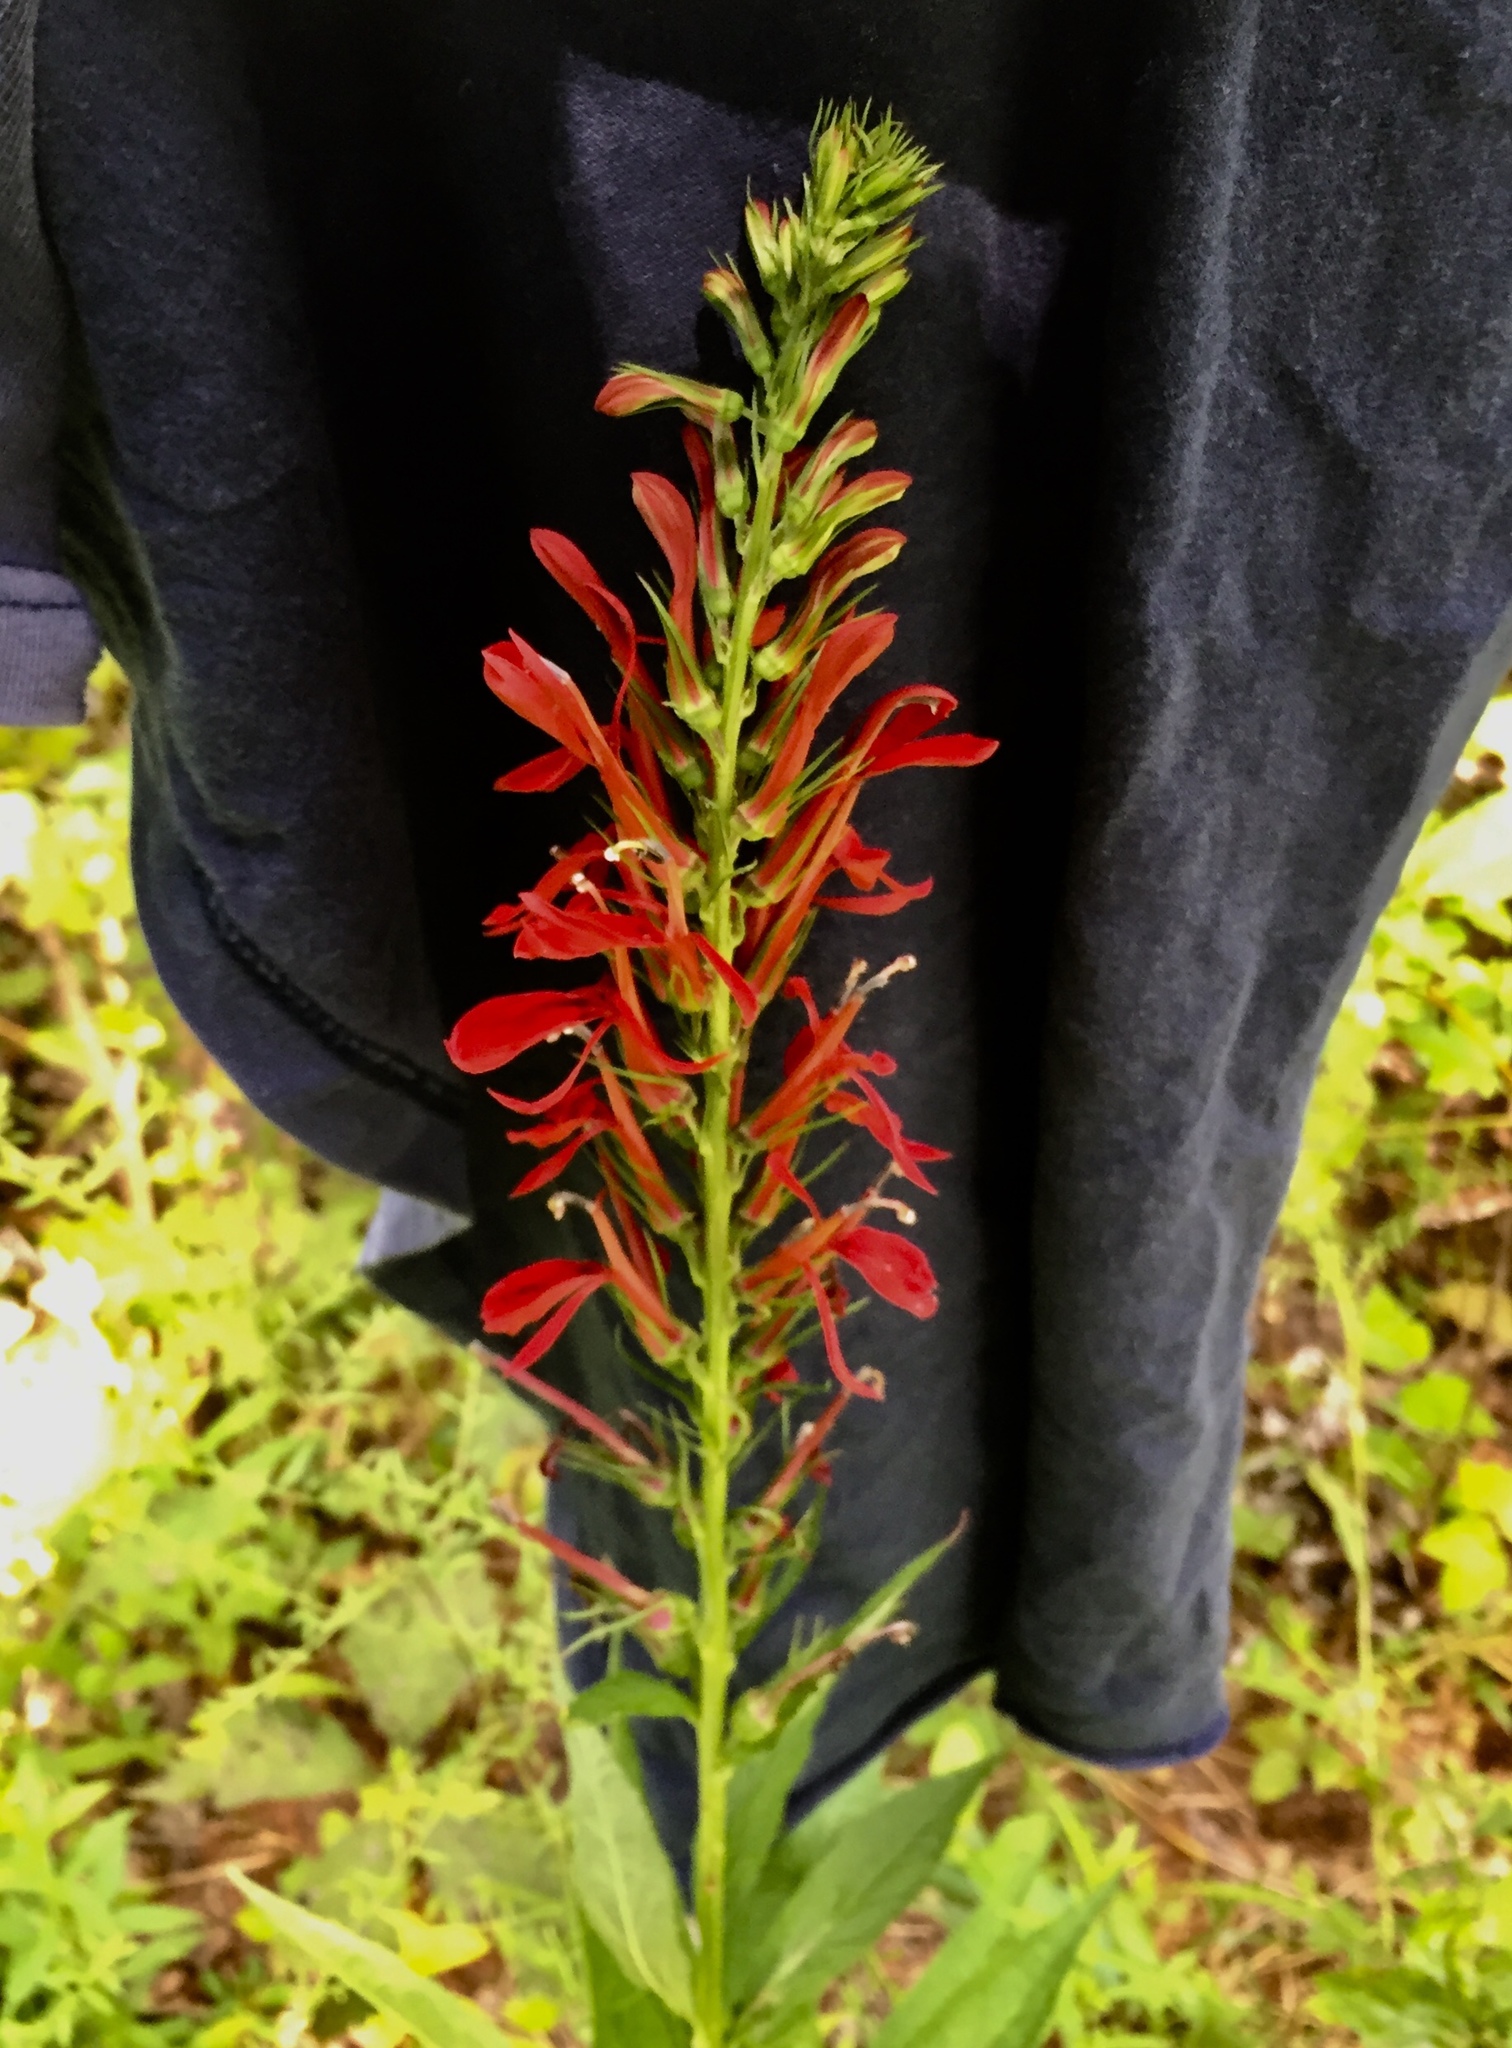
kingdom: Plantae
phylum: Tracheophyta
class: Magnoliopsida
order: Asterales
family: Campanulaceae
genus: Lobelia
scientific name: Lobelia cardinalis
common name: Cardinal flower
